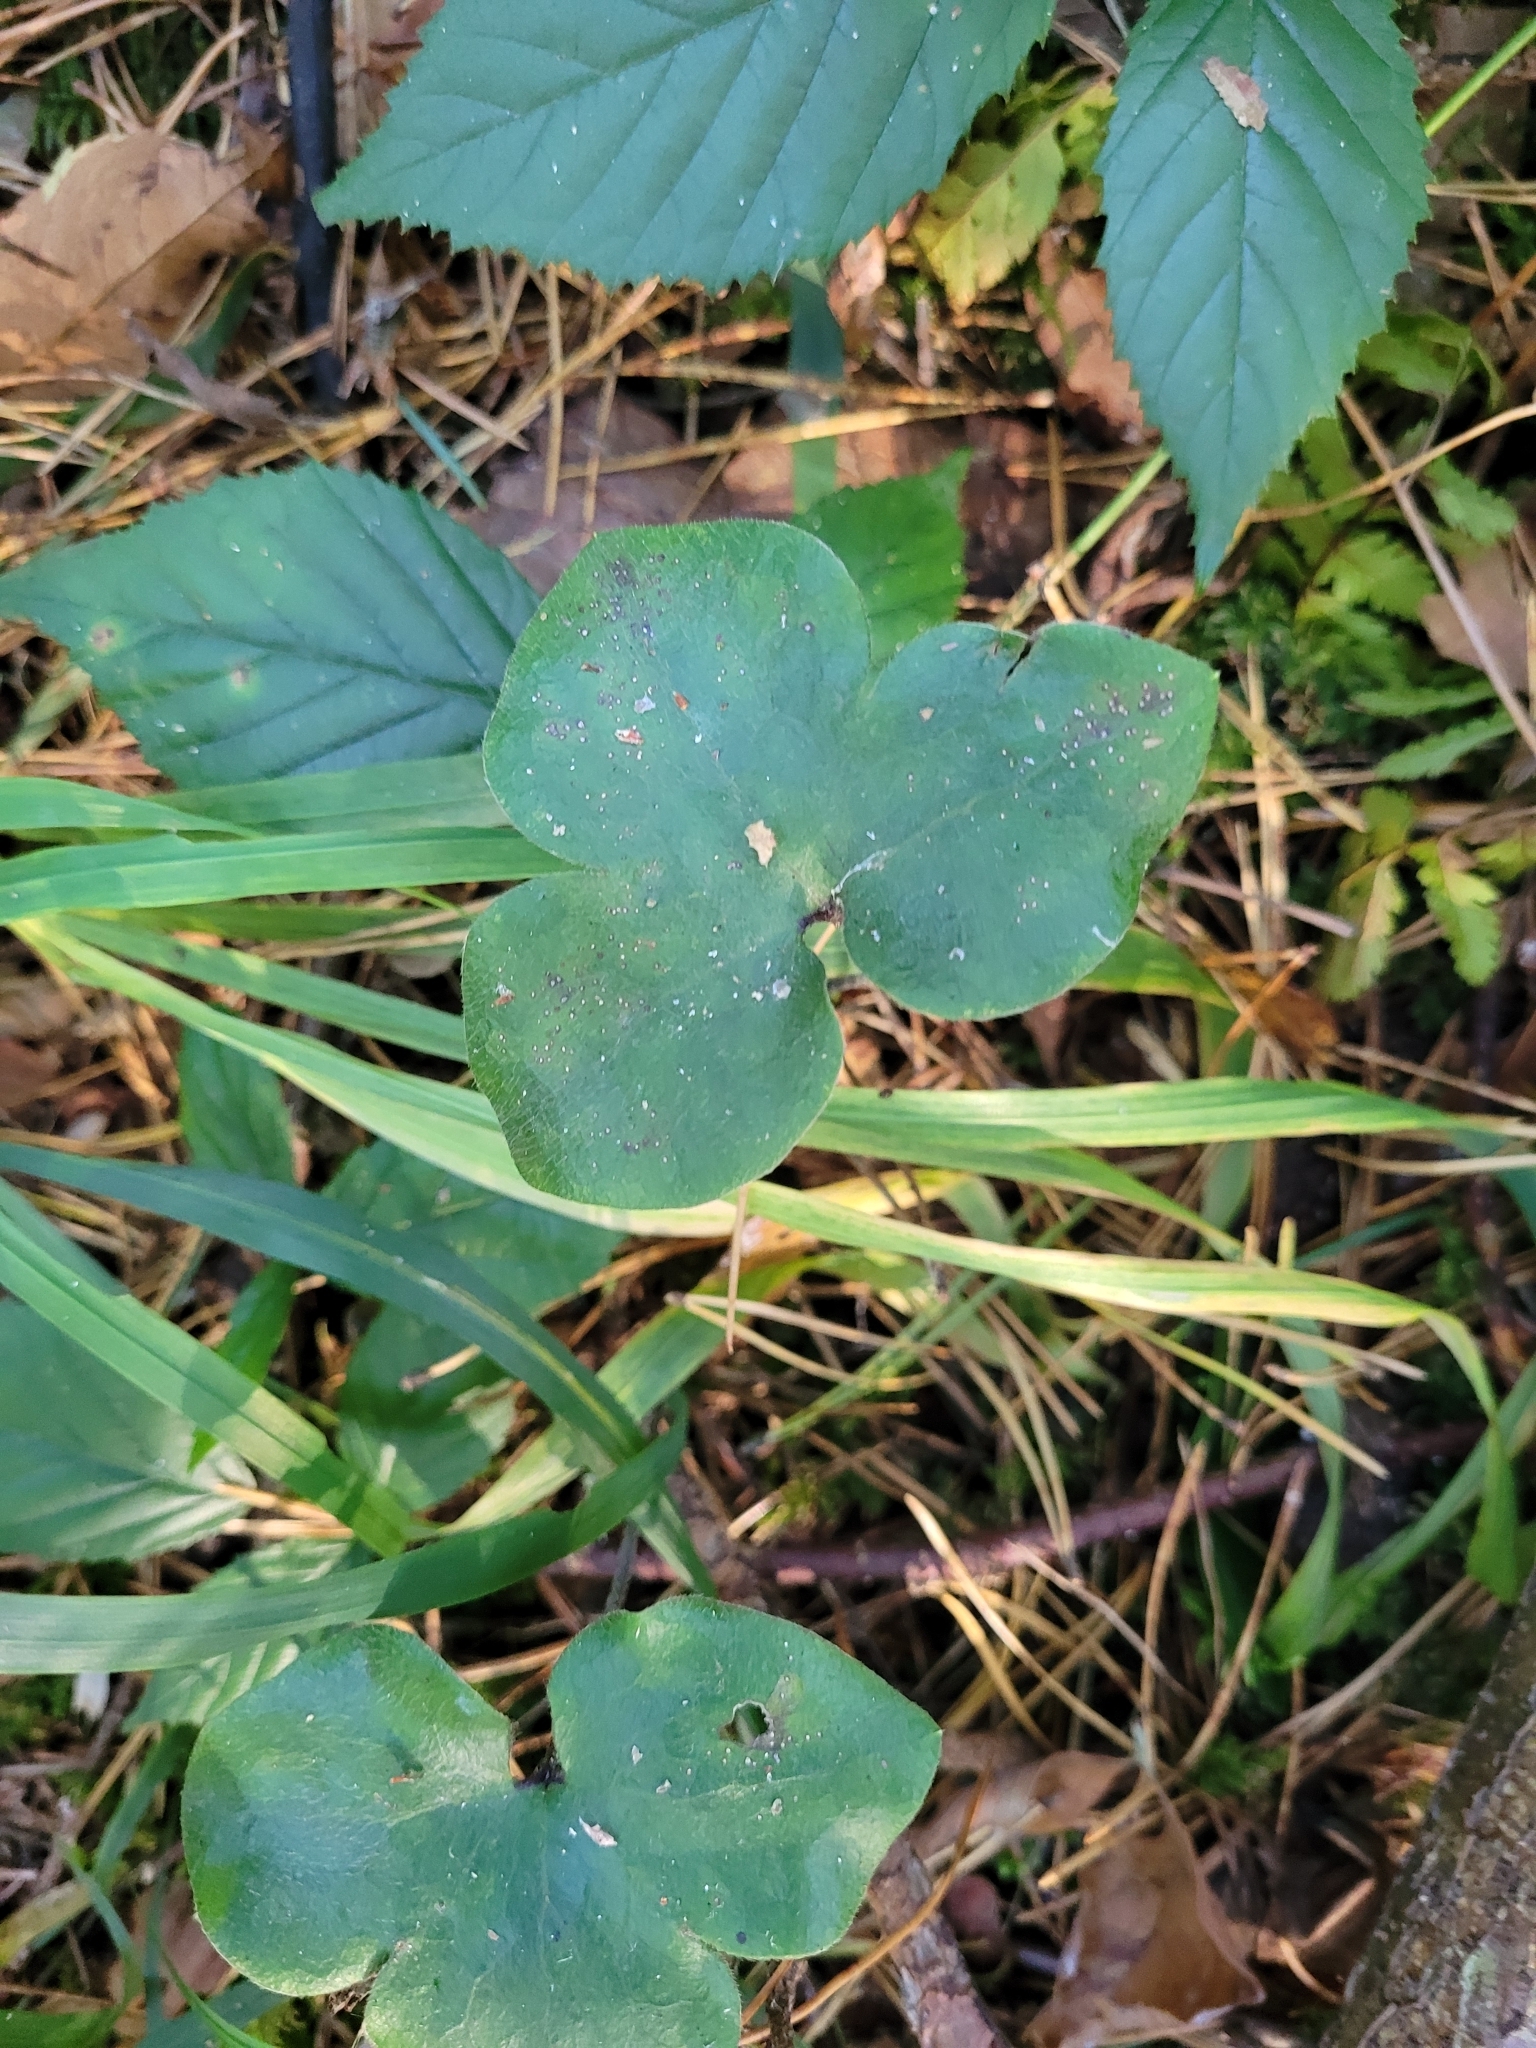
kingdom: Plantae
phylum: Tracheophyta
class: Magnoliopsida
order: Ranunculales
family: Ranunculaceae
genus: Hepatica
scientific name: Hepatica nobilis
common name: Liverleaf
